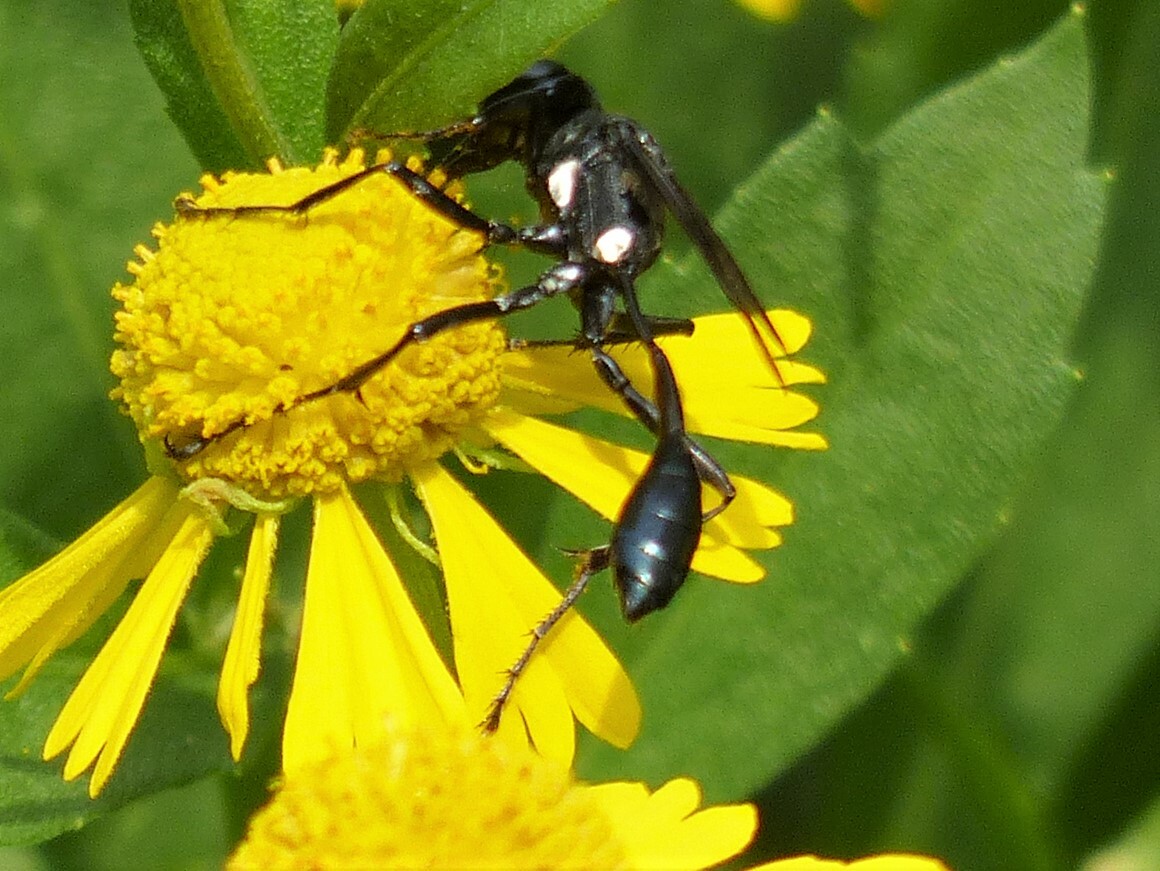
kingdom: Animalia
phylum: Arthropoda
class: Insecta
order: Hymenoptera
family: Sphecidae
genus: Eremnophila
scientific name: Eremnophila aureonotata
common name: Gold-marked thread-waisted wasp
